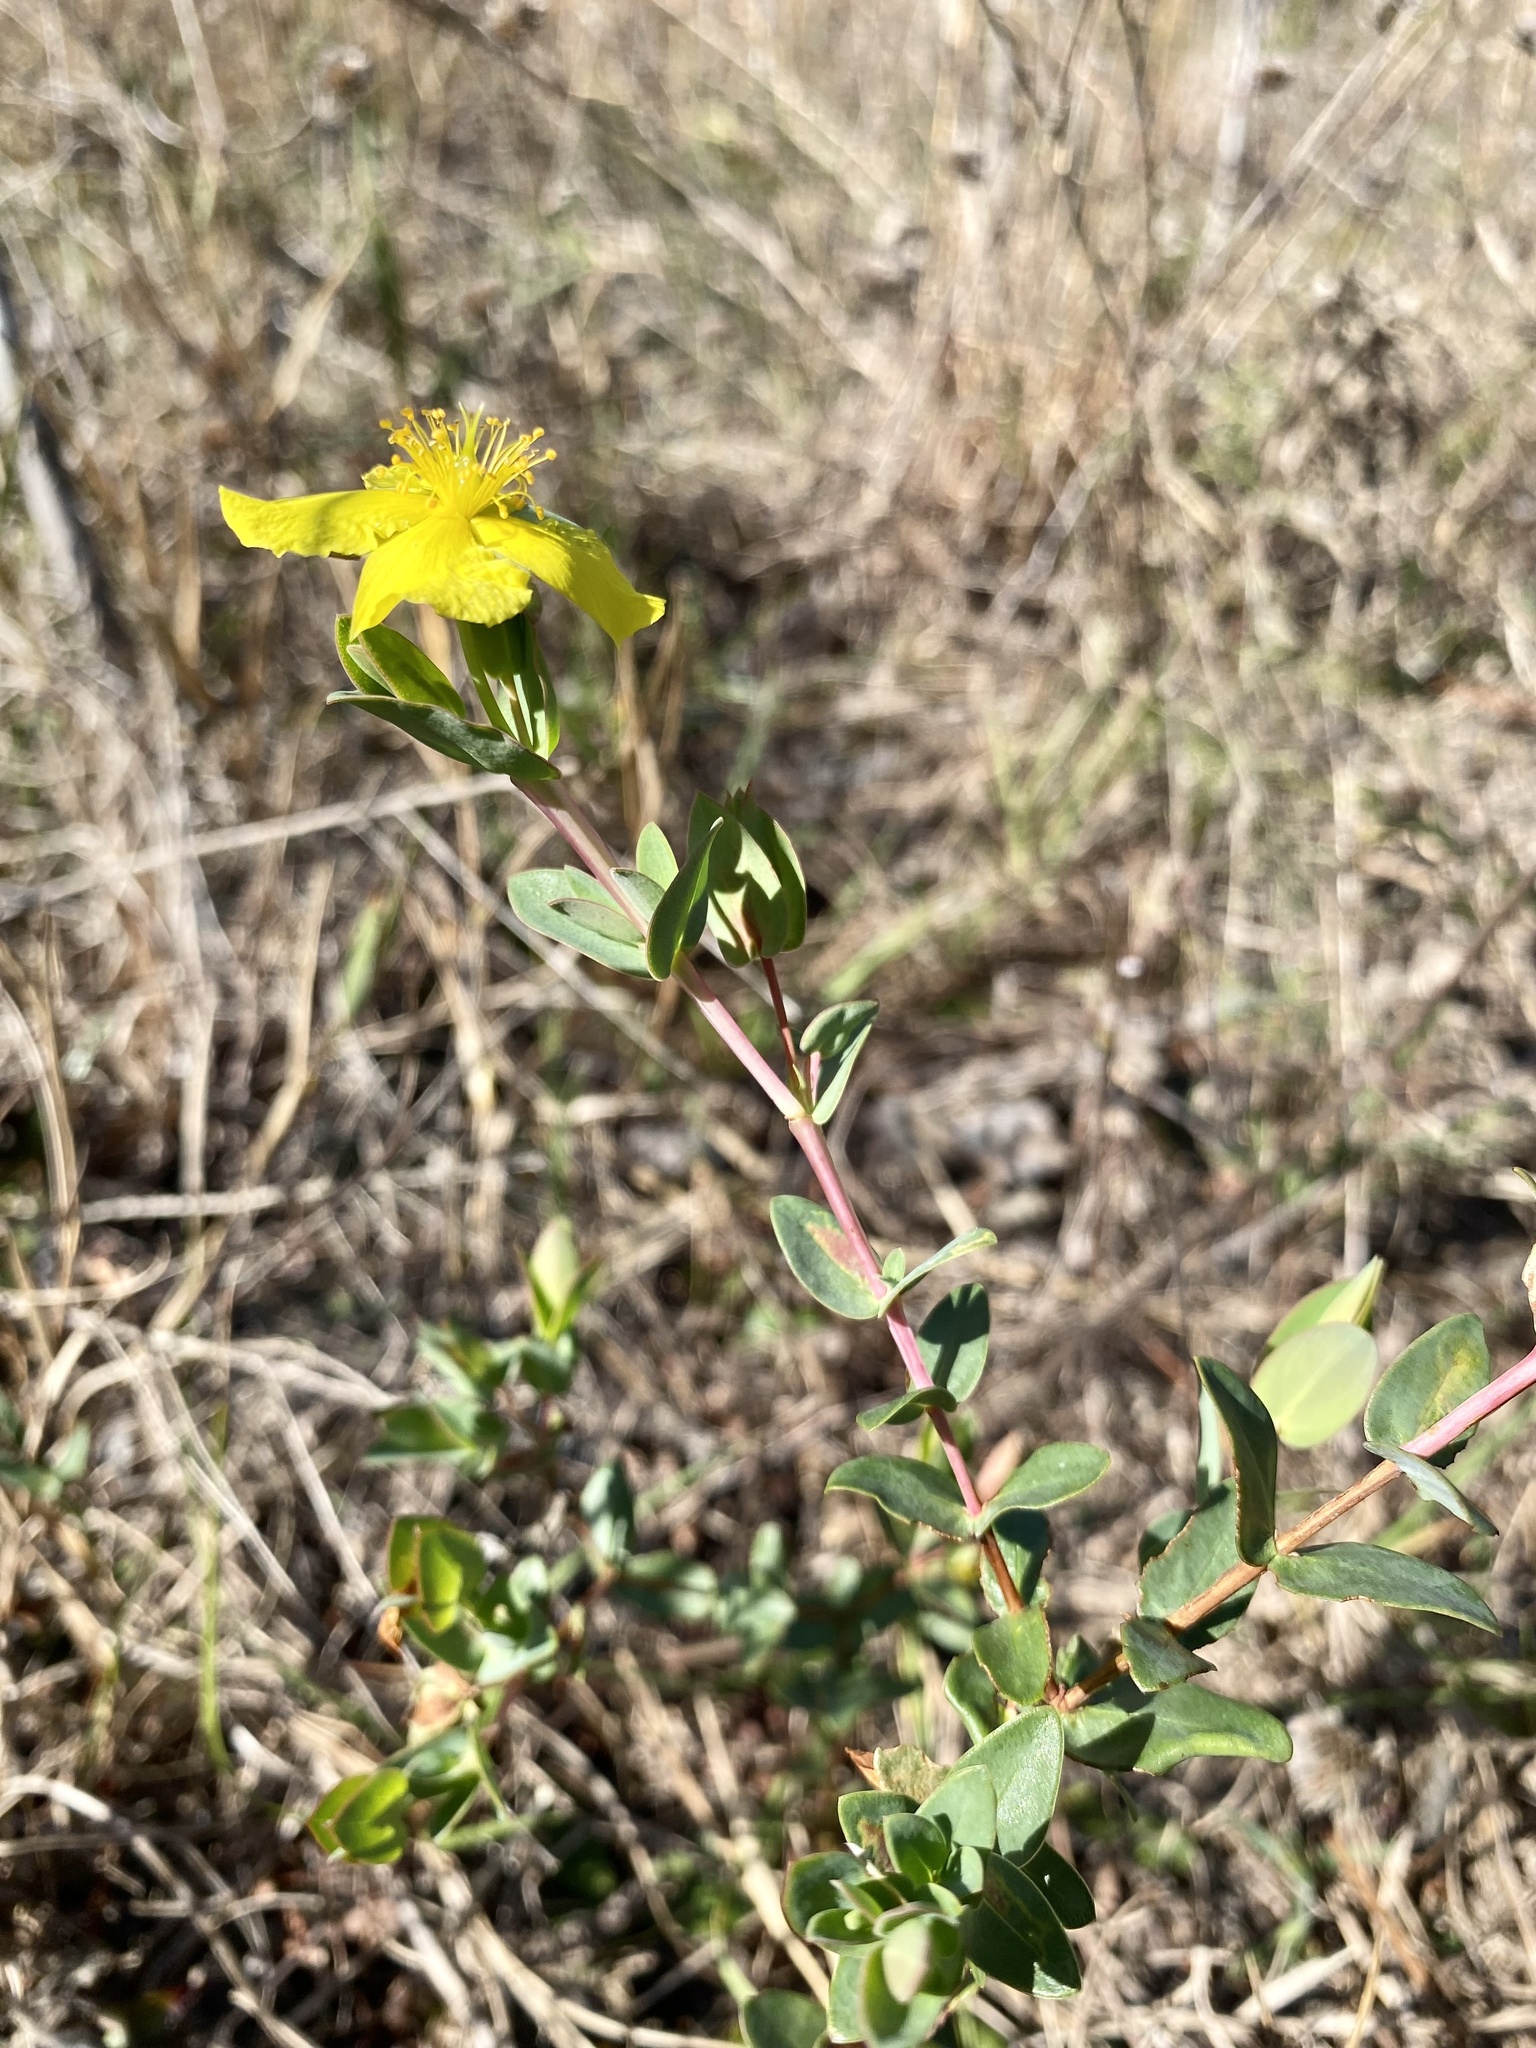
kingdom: Plantae
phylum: Tracheophyta
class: Magnoliopsida
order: Malpighiales
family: Hypericaceae
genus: Hypericum
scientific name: Hypericum tetrapetalum
